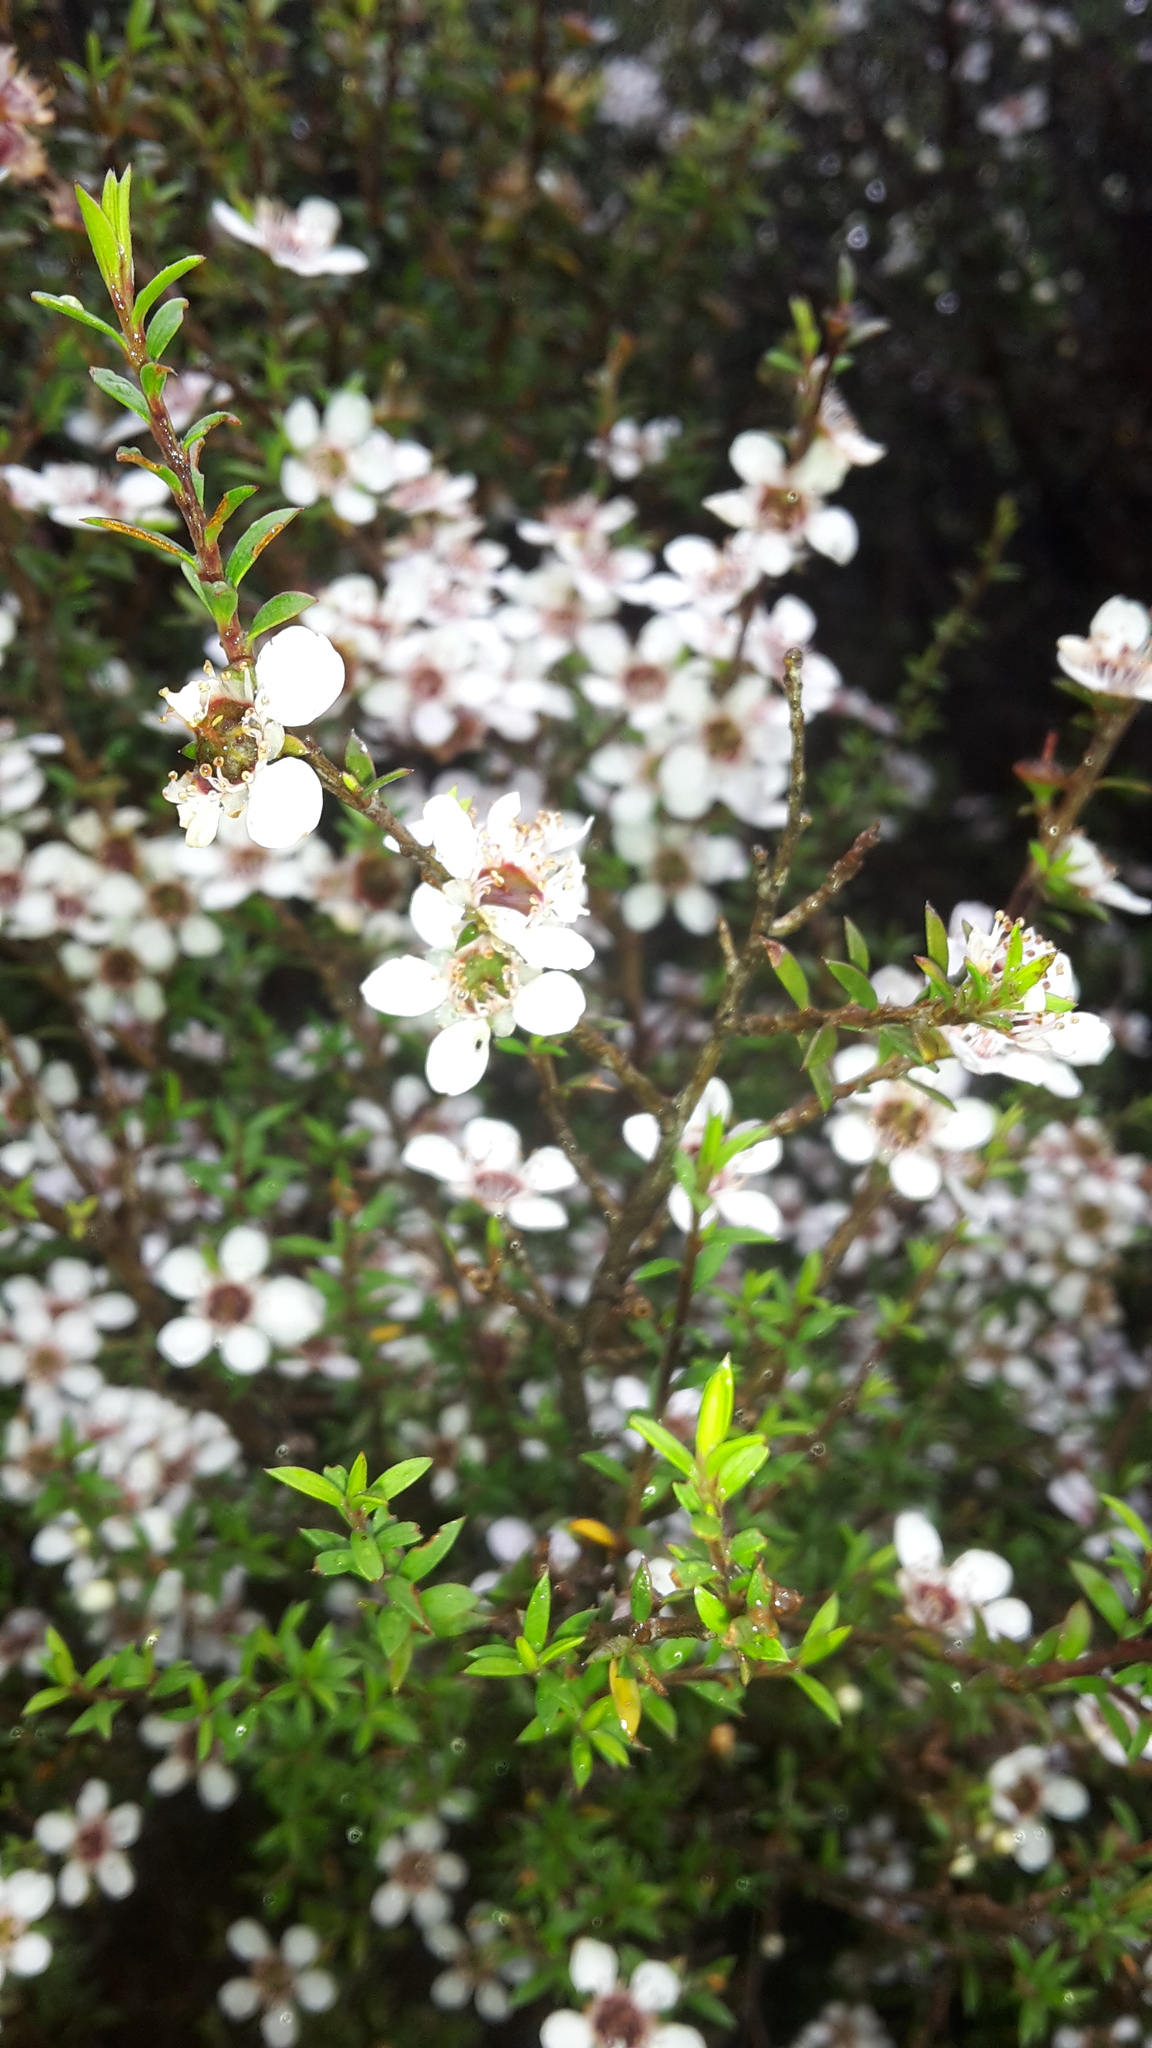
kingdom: Plantae
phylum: Tracheophyta
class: Magnoliopsida
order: Myrtales
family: Myrtaceae
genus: Leptospermum
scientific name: Leptospermum scoparium
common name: Broom tea-tree
